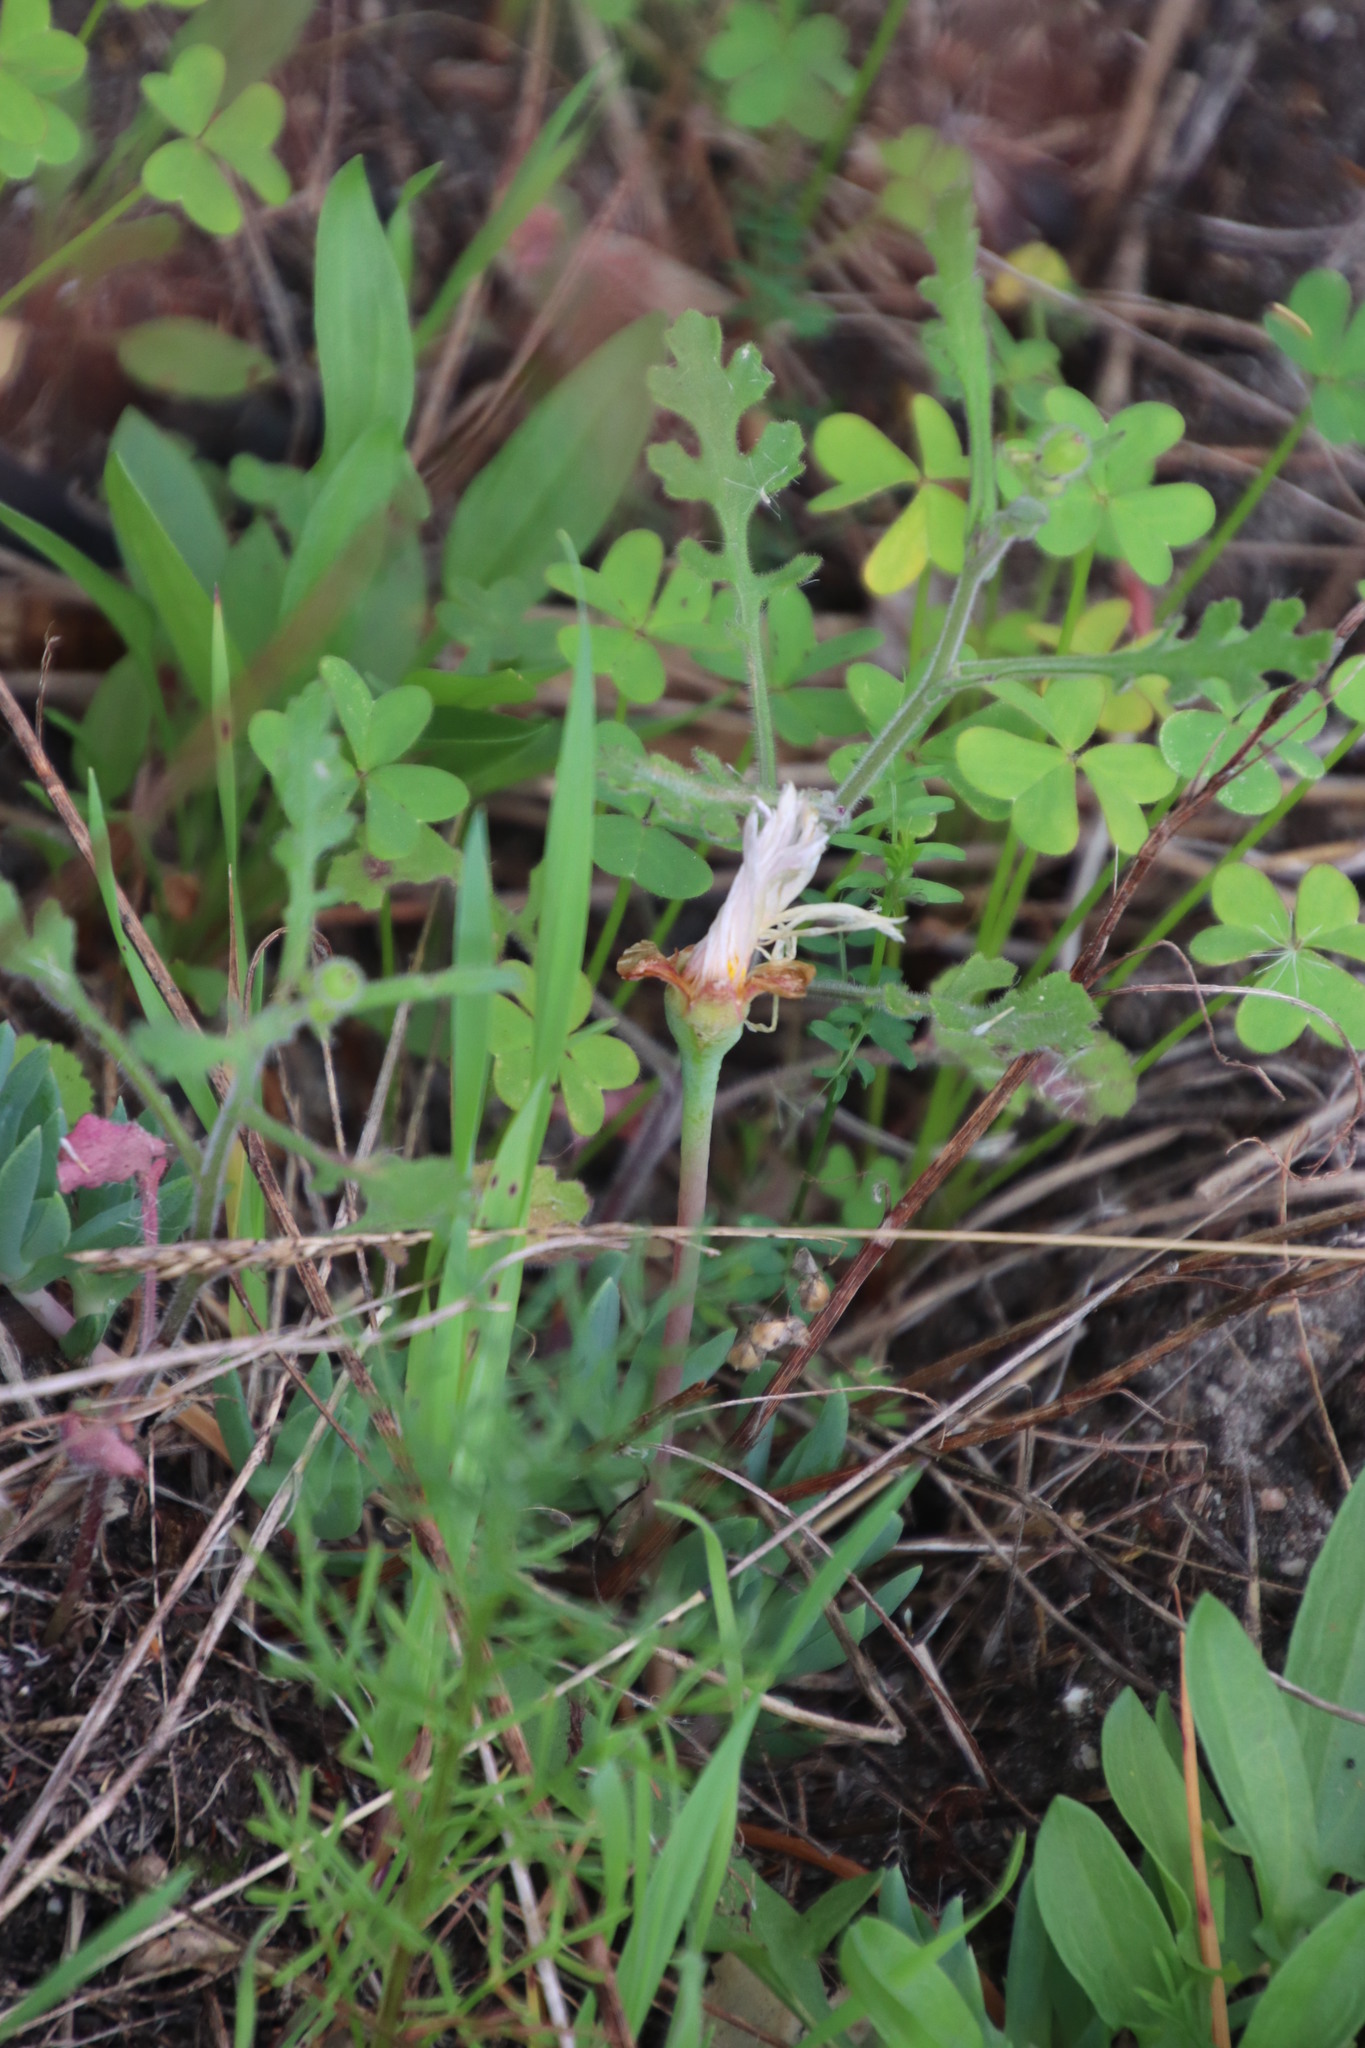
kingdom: Plantae
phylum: Tracheophyta
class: Magnoliopsida
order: Caryophyllales
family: Aizoaceae
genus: Lampranthus
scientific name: Lampranthus reptans
